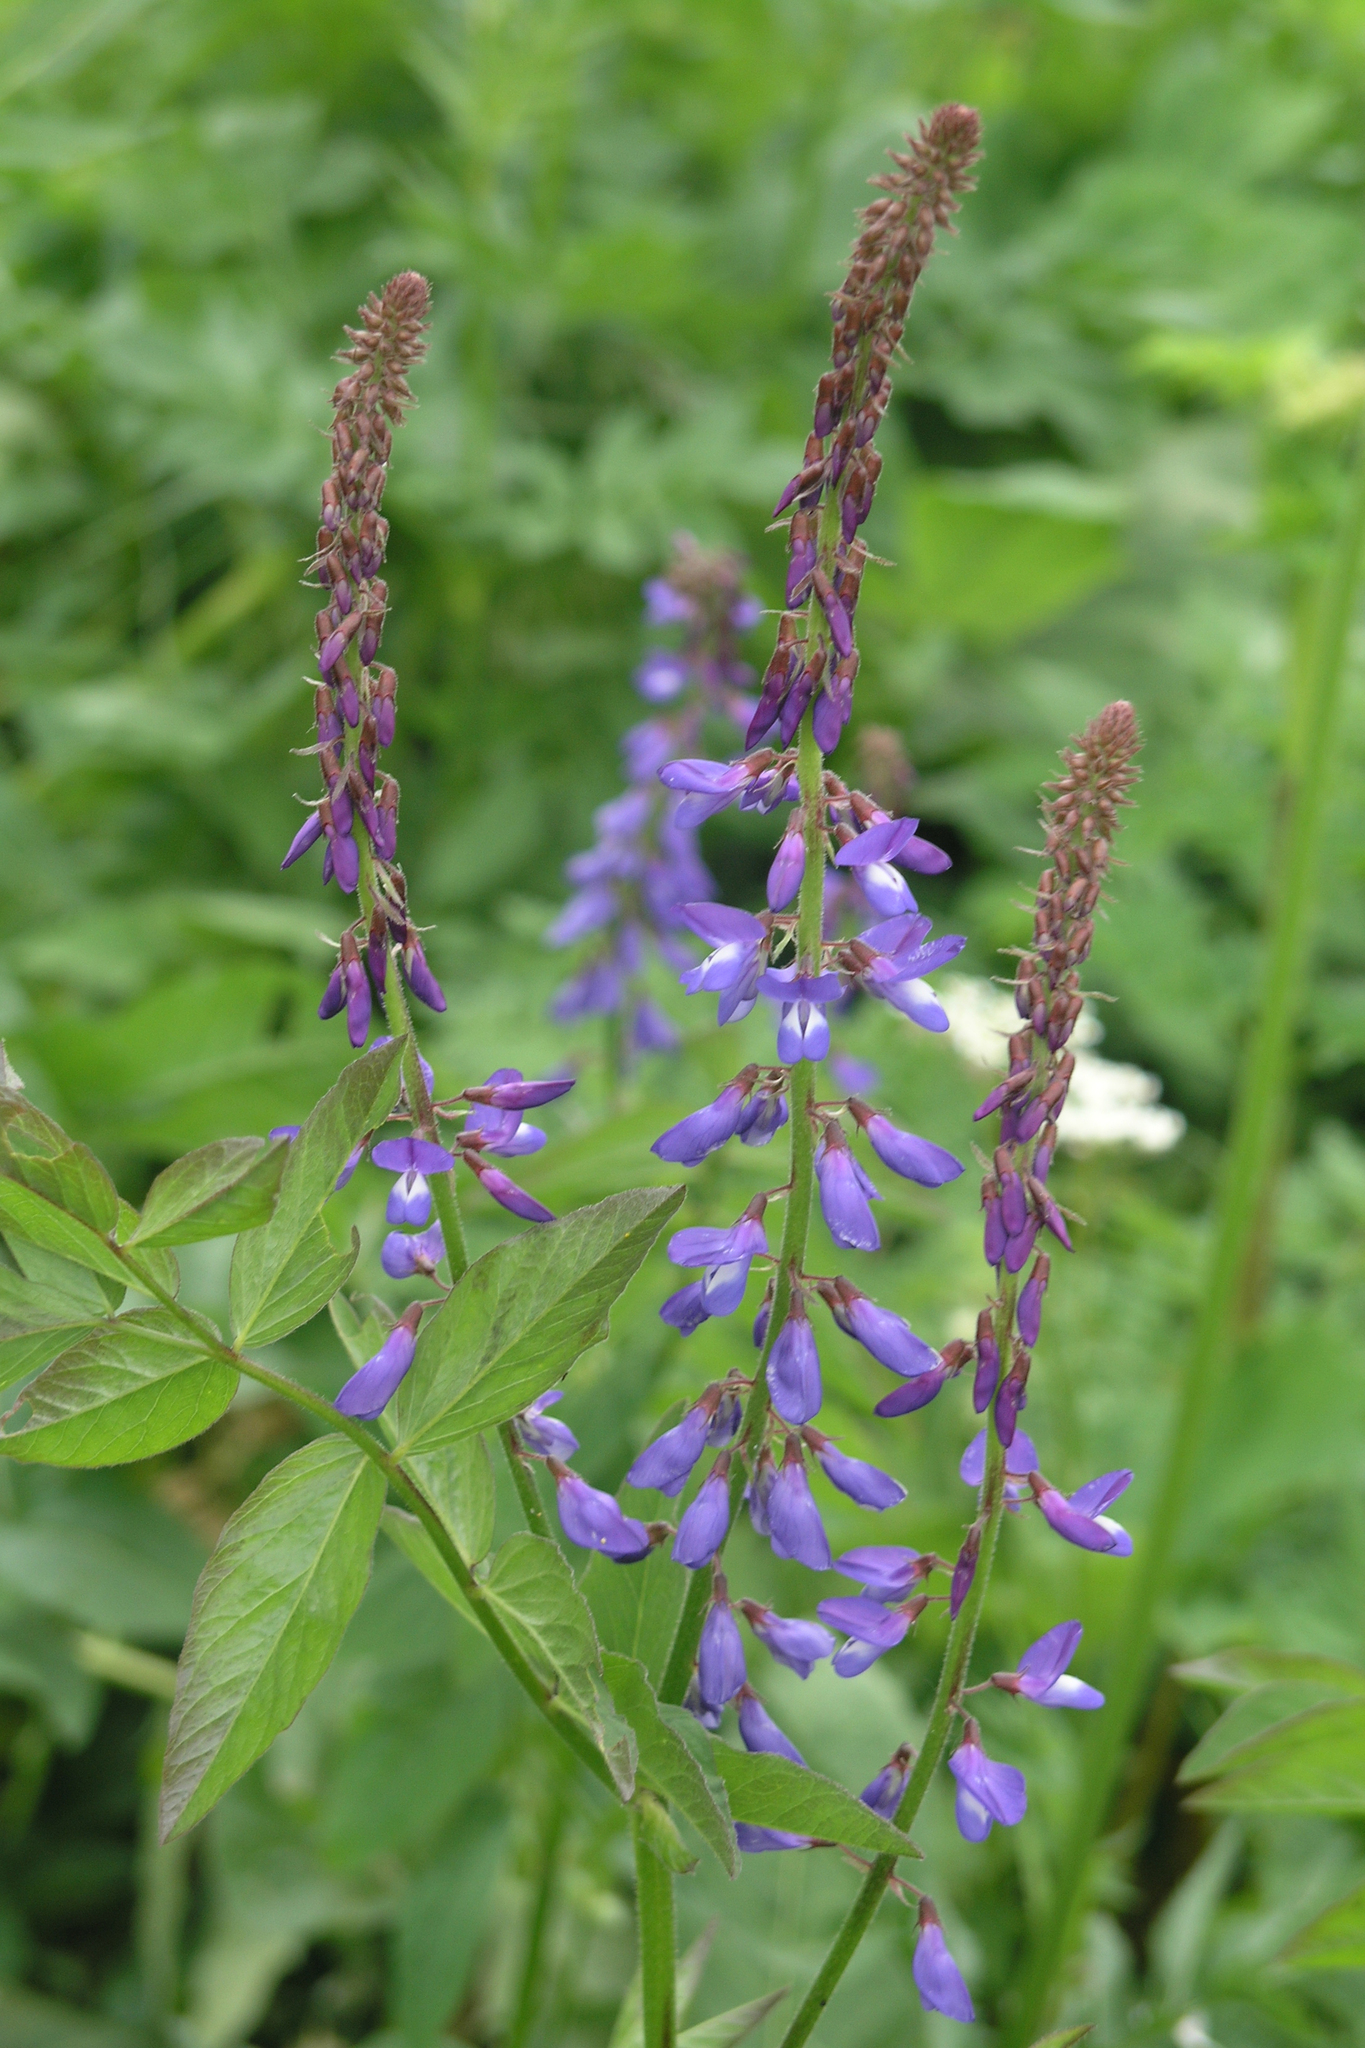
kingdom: Plantae
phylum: Tracheophyta
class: Magnoliopsida
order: Fabales
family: Fabaceae
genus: Galega
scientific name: Galega orientalis
